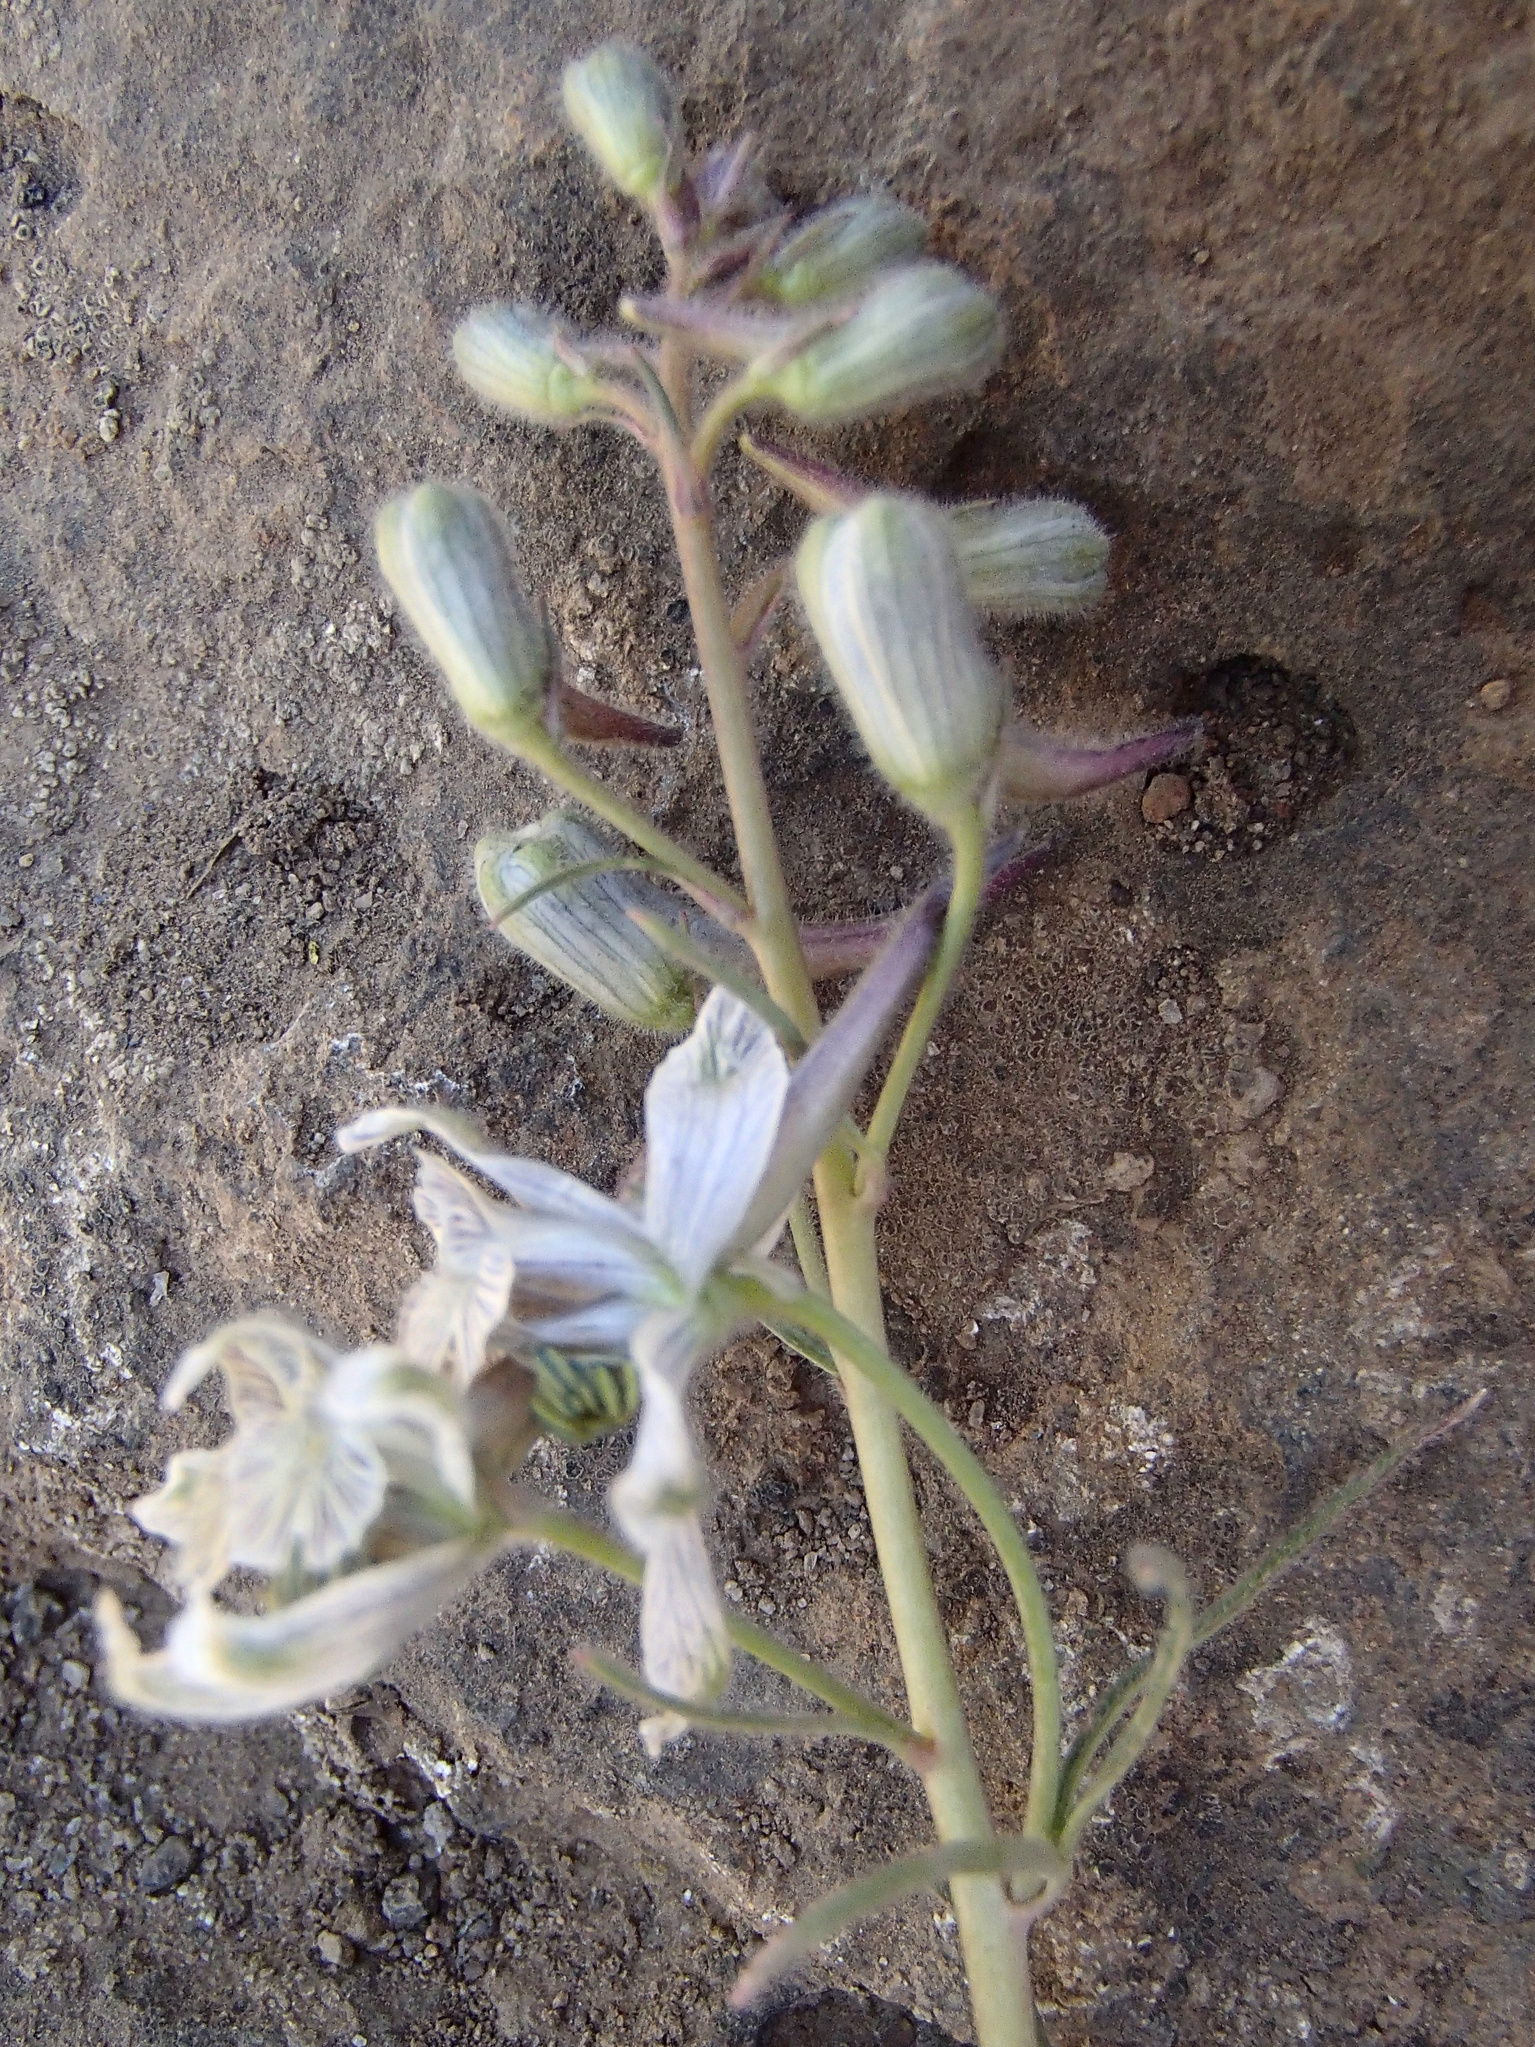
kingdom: Plantae
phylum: Tracheophyta
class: Magnoliopsida
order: Ranunculales
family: Ranunculaceae
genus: Delphinium
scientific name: Delphinium nuttallianum
